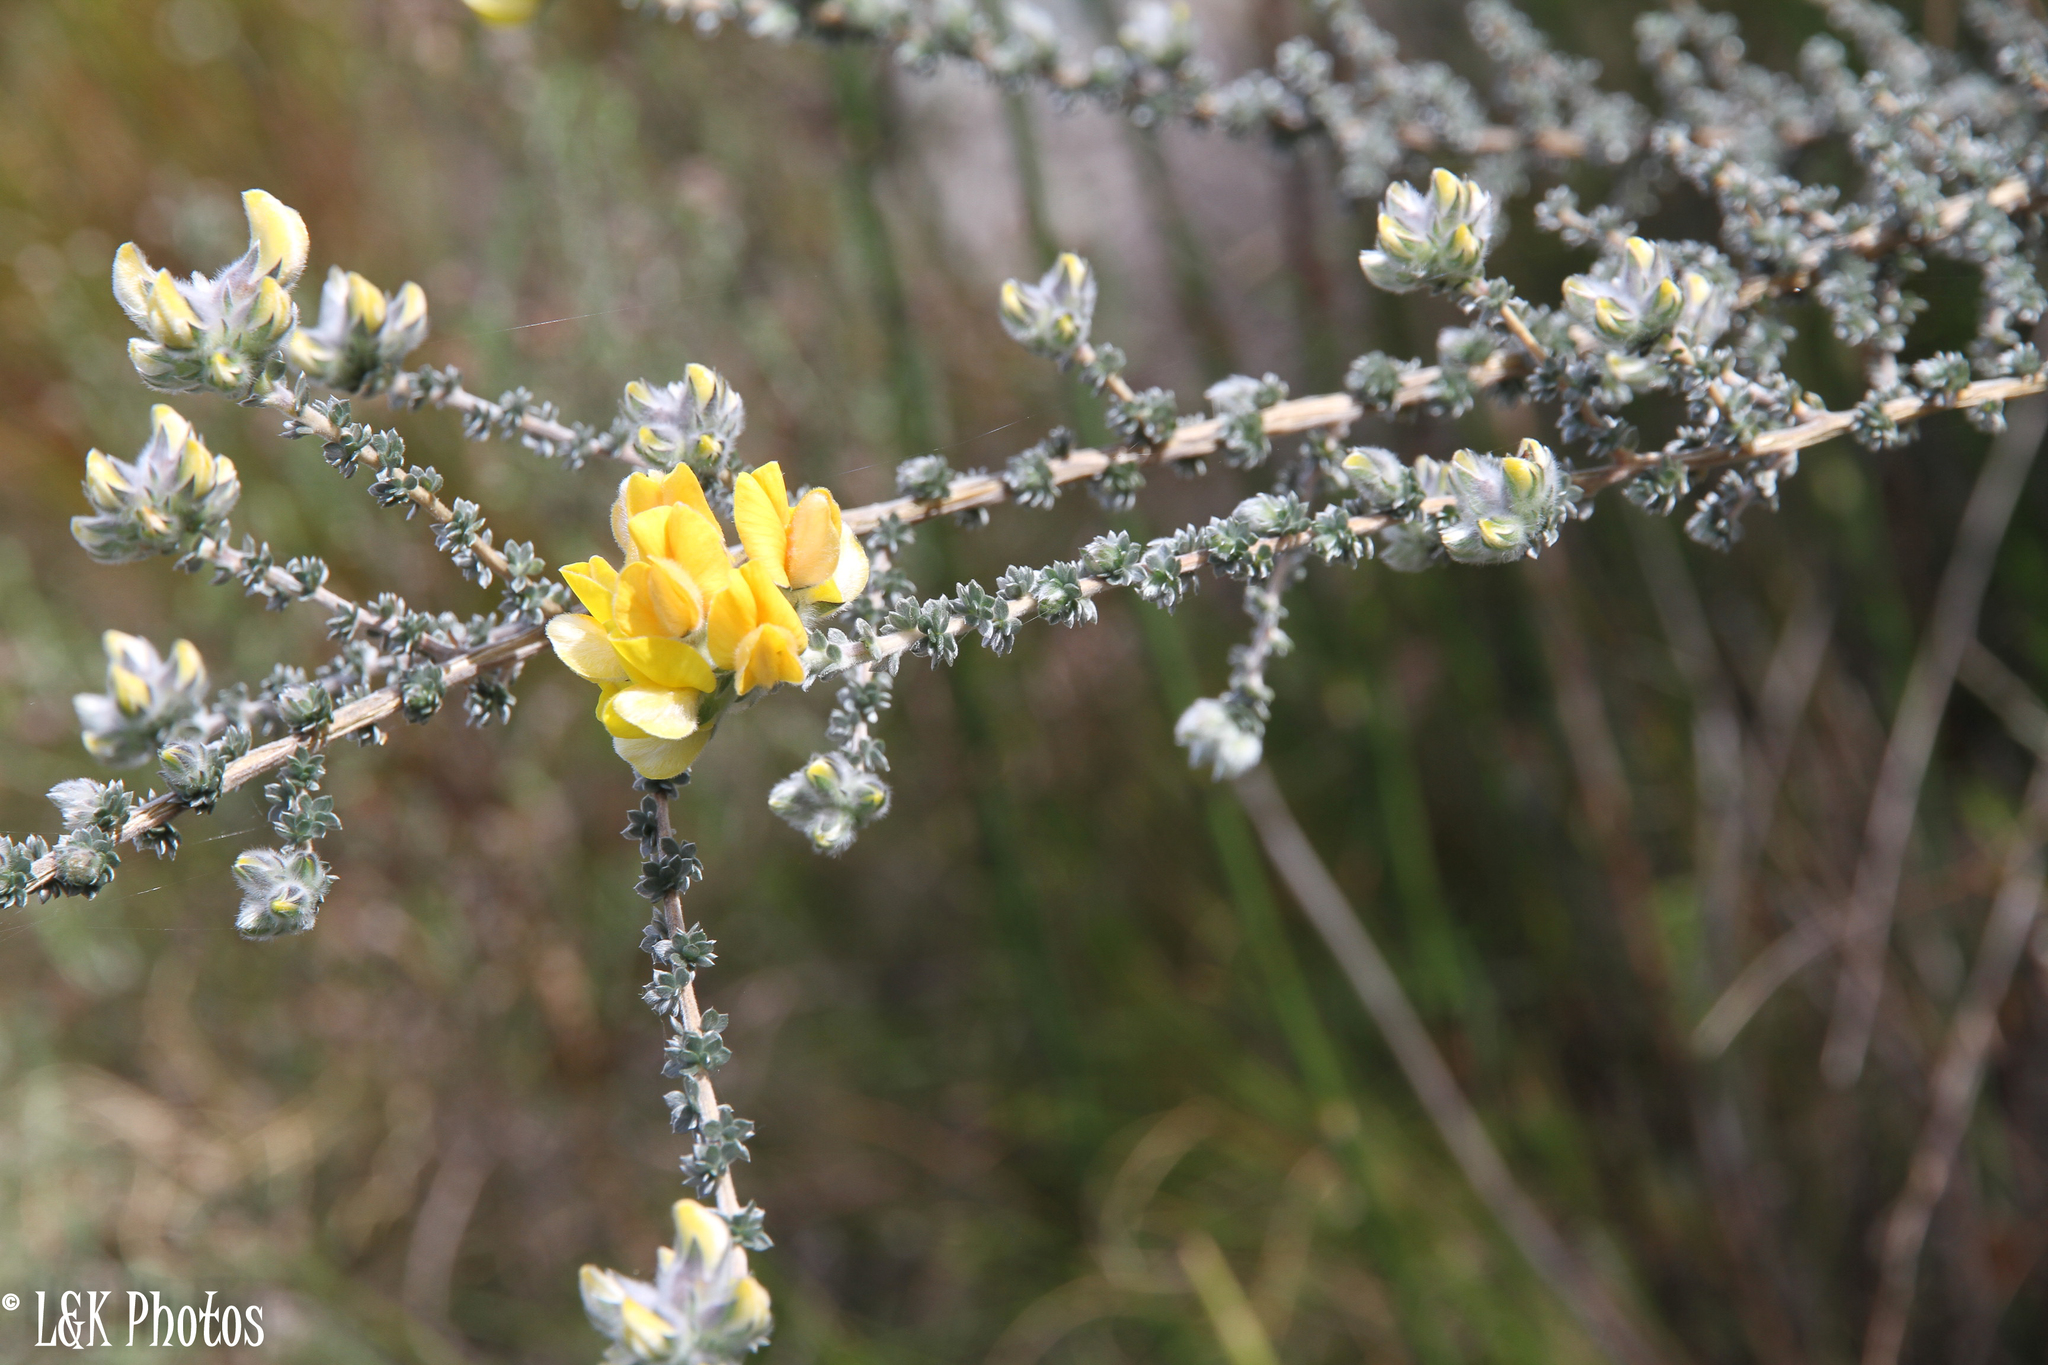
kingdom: Plantae
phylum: Tracheophyta
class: Magnoliopsida
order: Fabales
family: Fabaceae
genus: Aspalathus
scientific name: Aspalathus ramulosa
